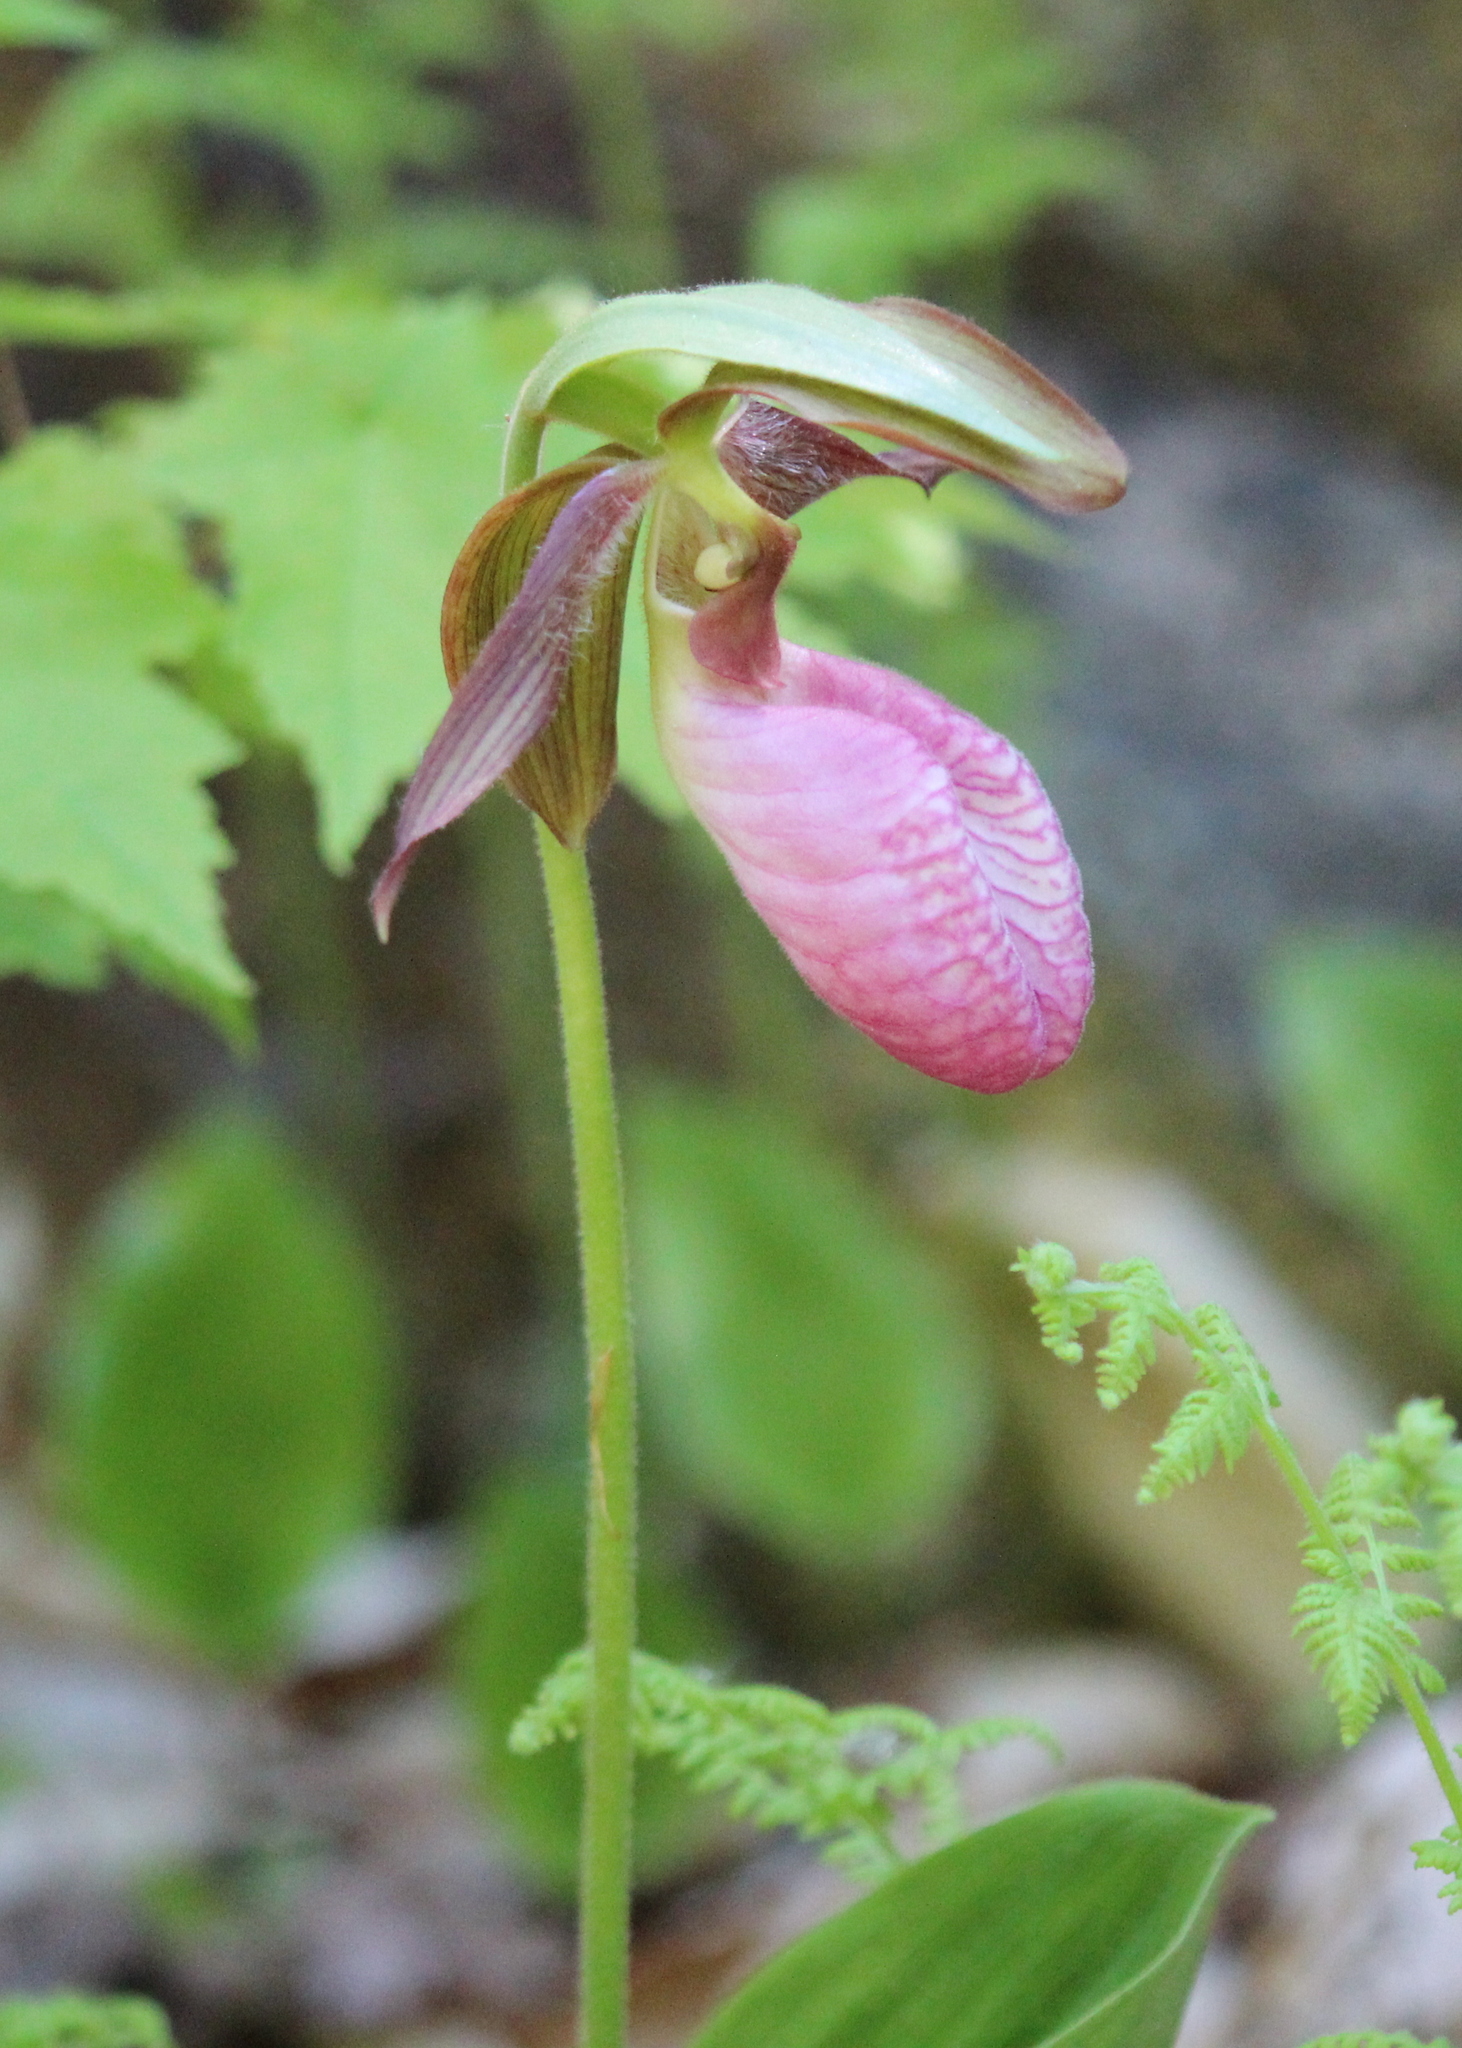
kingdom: Plantae
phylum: Tracheophyta
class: Liliopsida
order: Asparagales
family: Orchidaceae
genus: Cypripedium
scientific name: Cypripedium acaule
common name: Pink lady's-slipper
